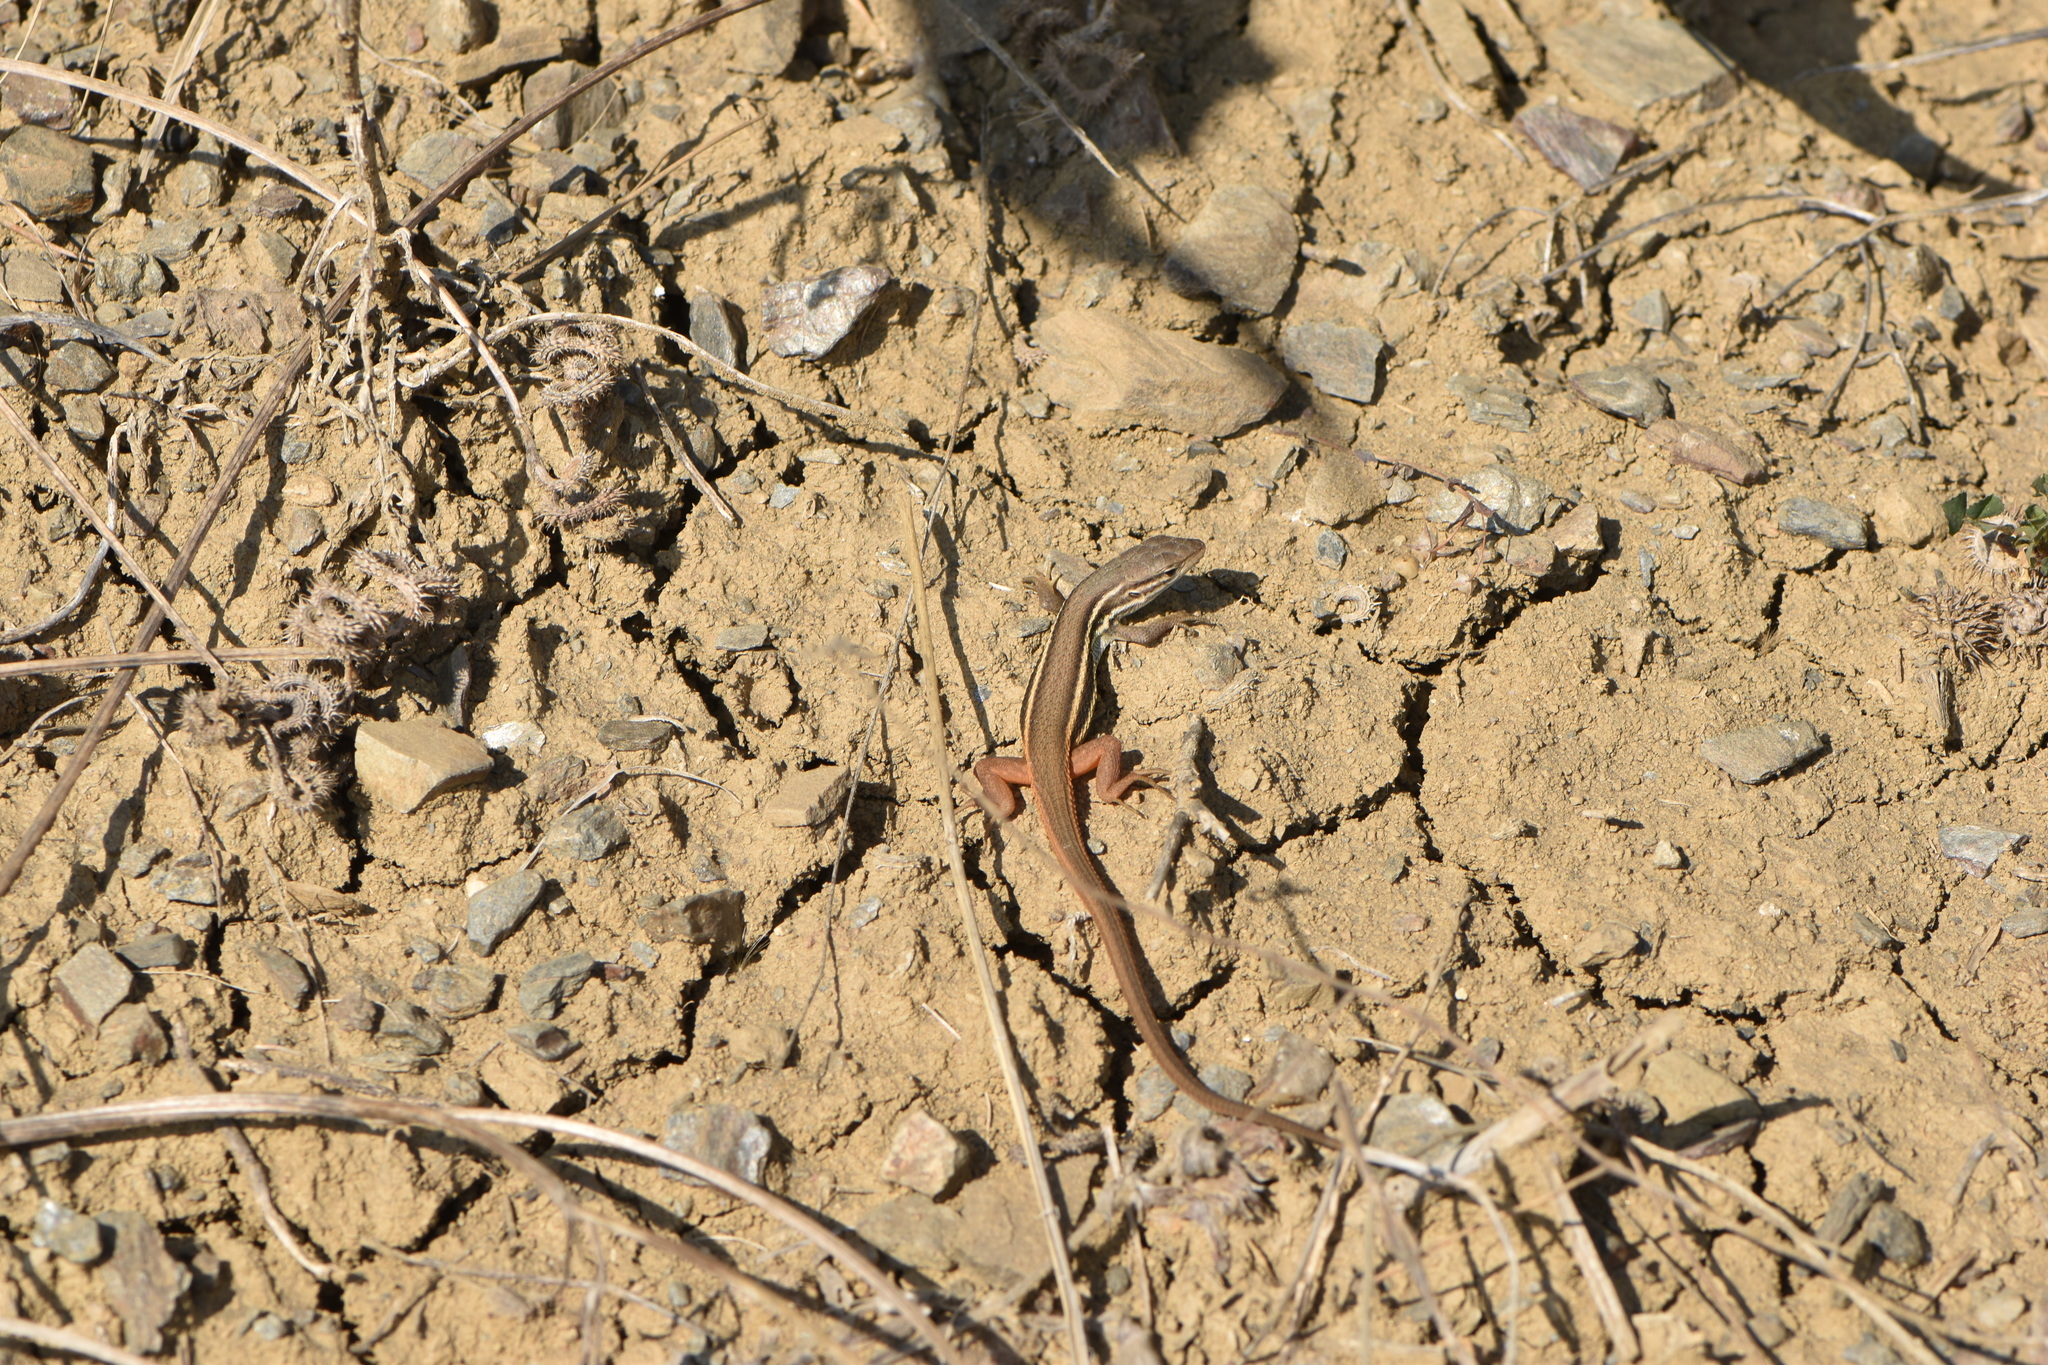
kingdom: Animalia
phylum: Chordata
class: Squamata
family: Lacertidae
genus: Psammodromus
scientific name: Psammodromus algirus
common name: Algerian psammodromus
